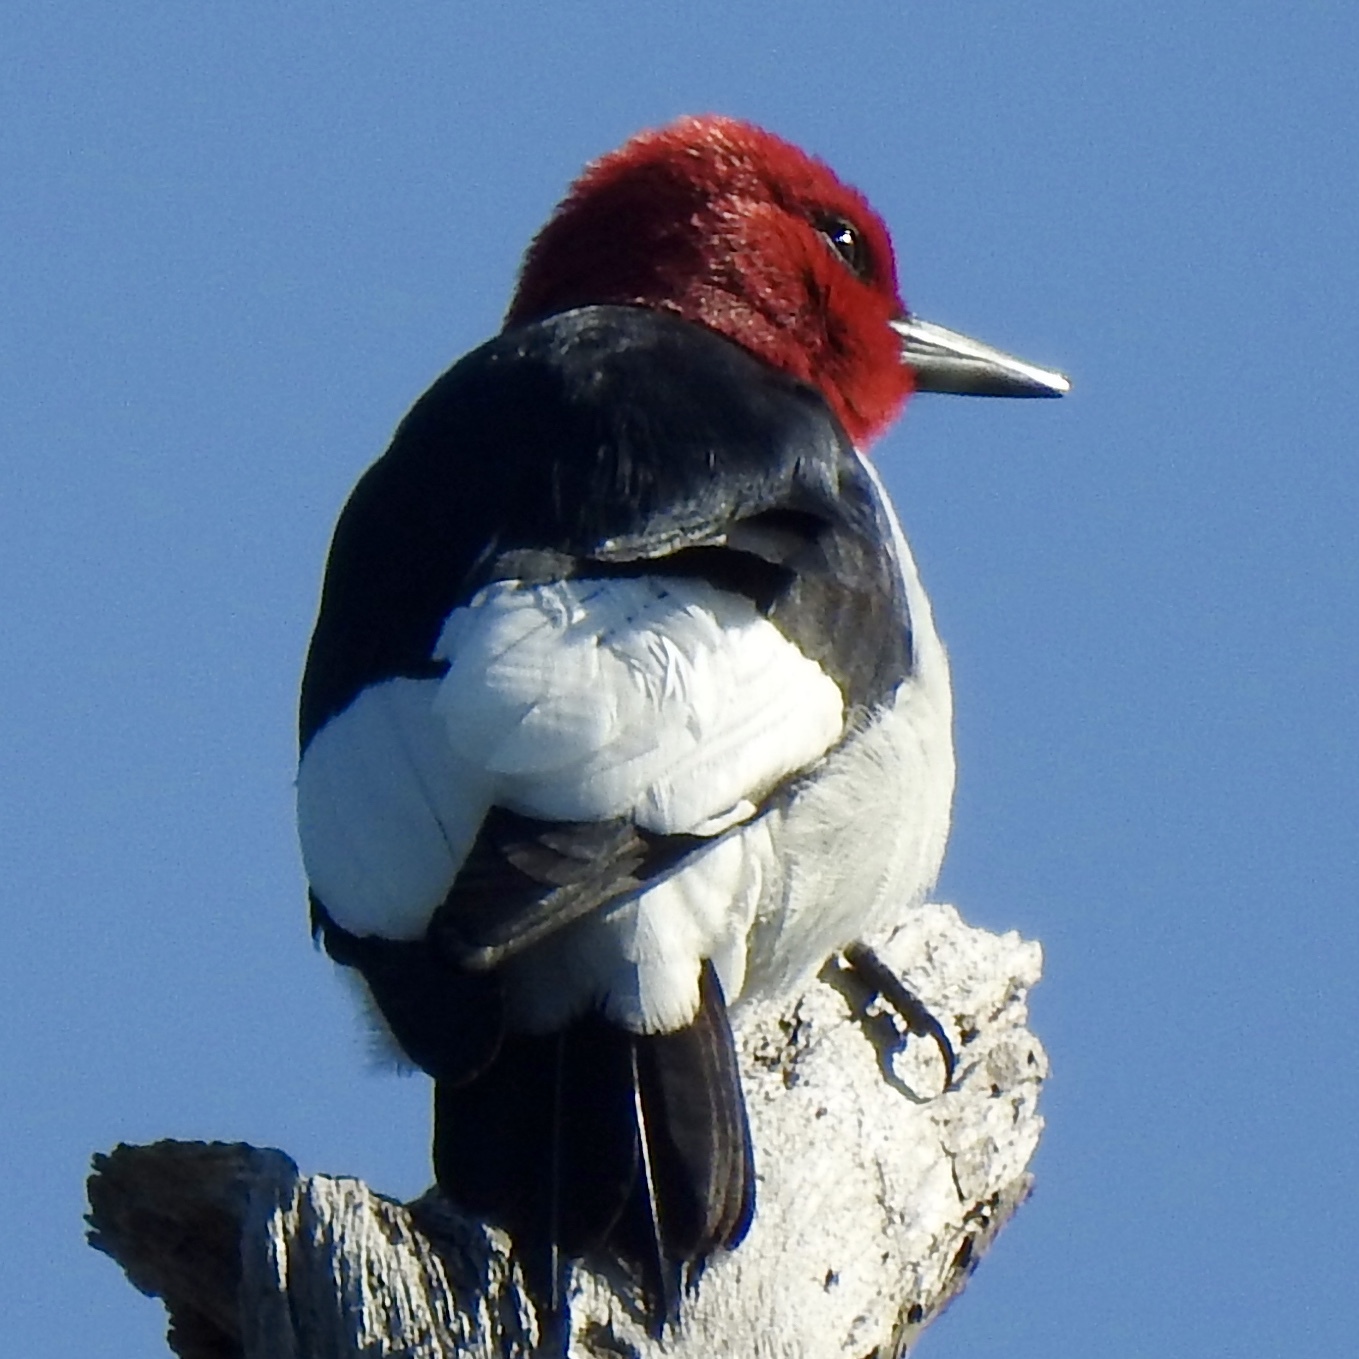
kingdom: Animalia
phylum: Chordata
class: Aves
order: Piciformes
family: Picidae
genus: Melanerpes
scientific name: Melanerpes erythrocephalus
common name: Red-headed woodpecker
